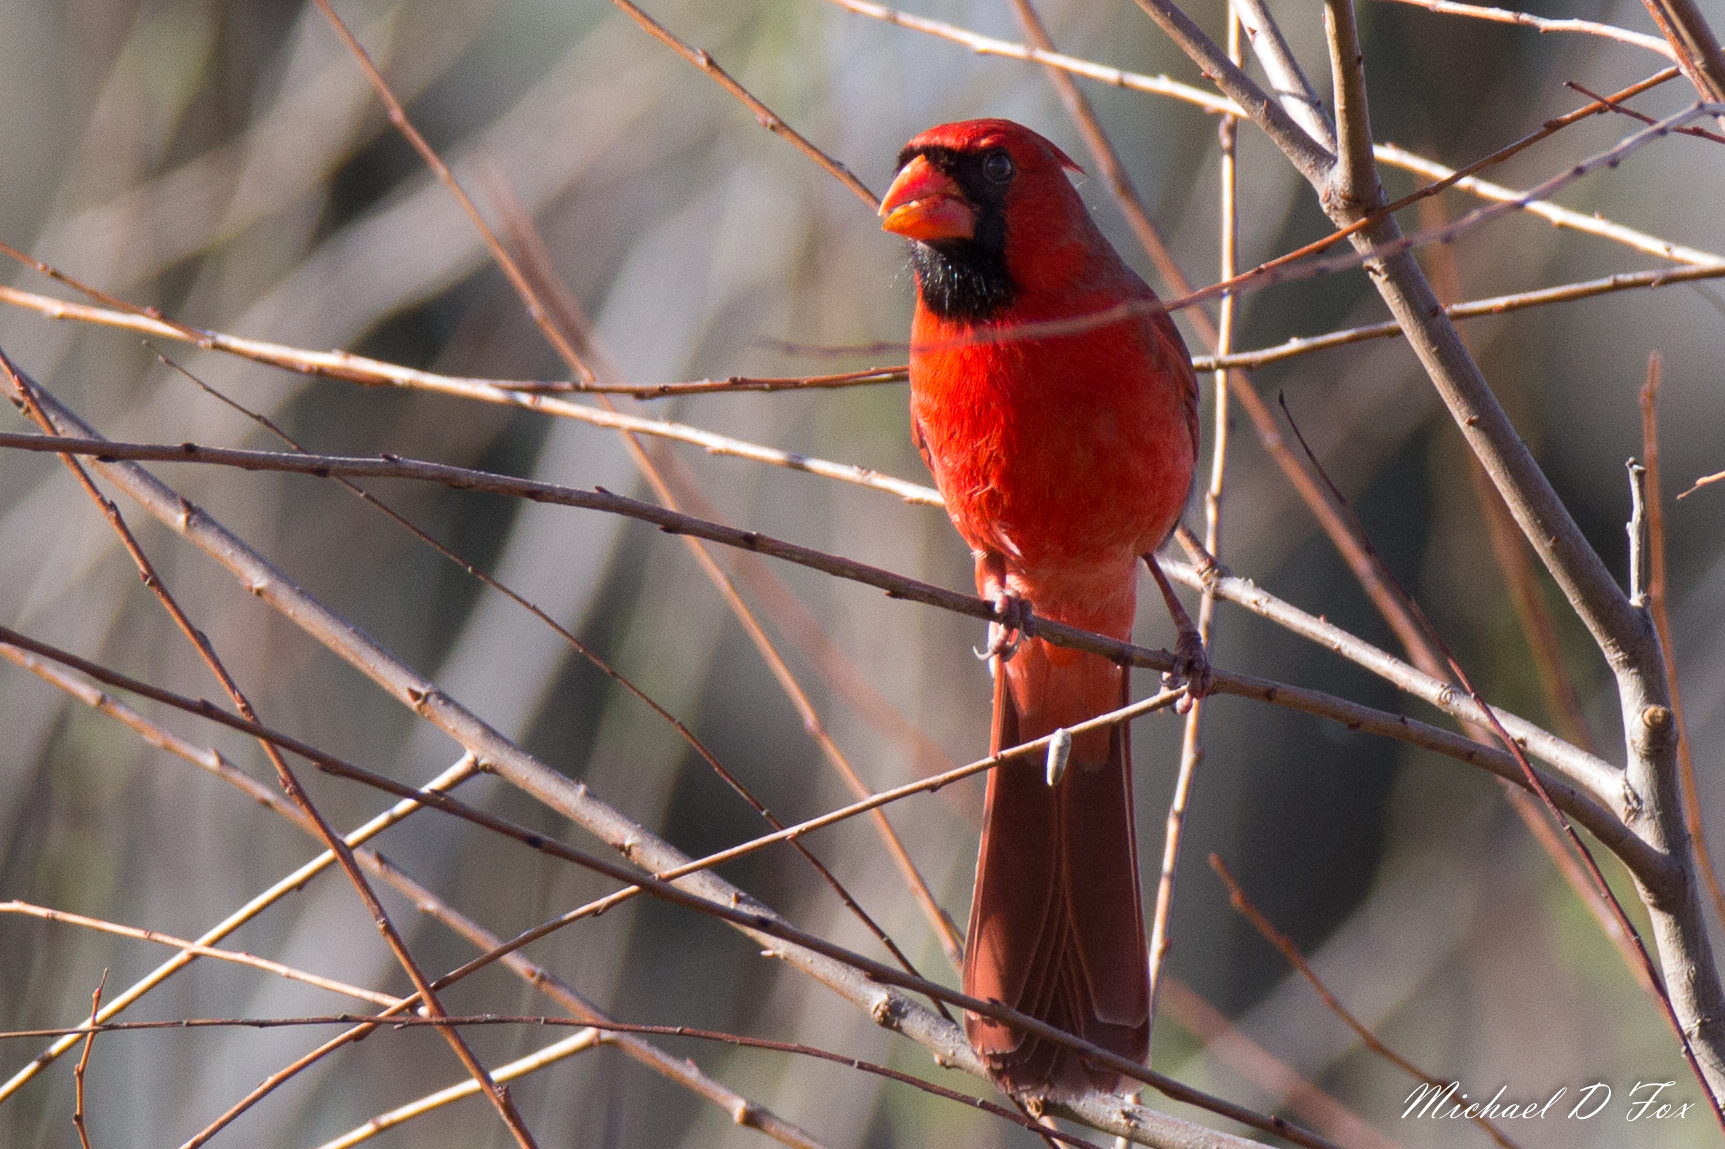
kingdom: Animalia
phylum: Chordata
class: Aves
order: Passeriformes
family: Cardinalidae
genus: Cardinalis
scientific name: Cardinalis cardinalis
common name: Northern cardinal
